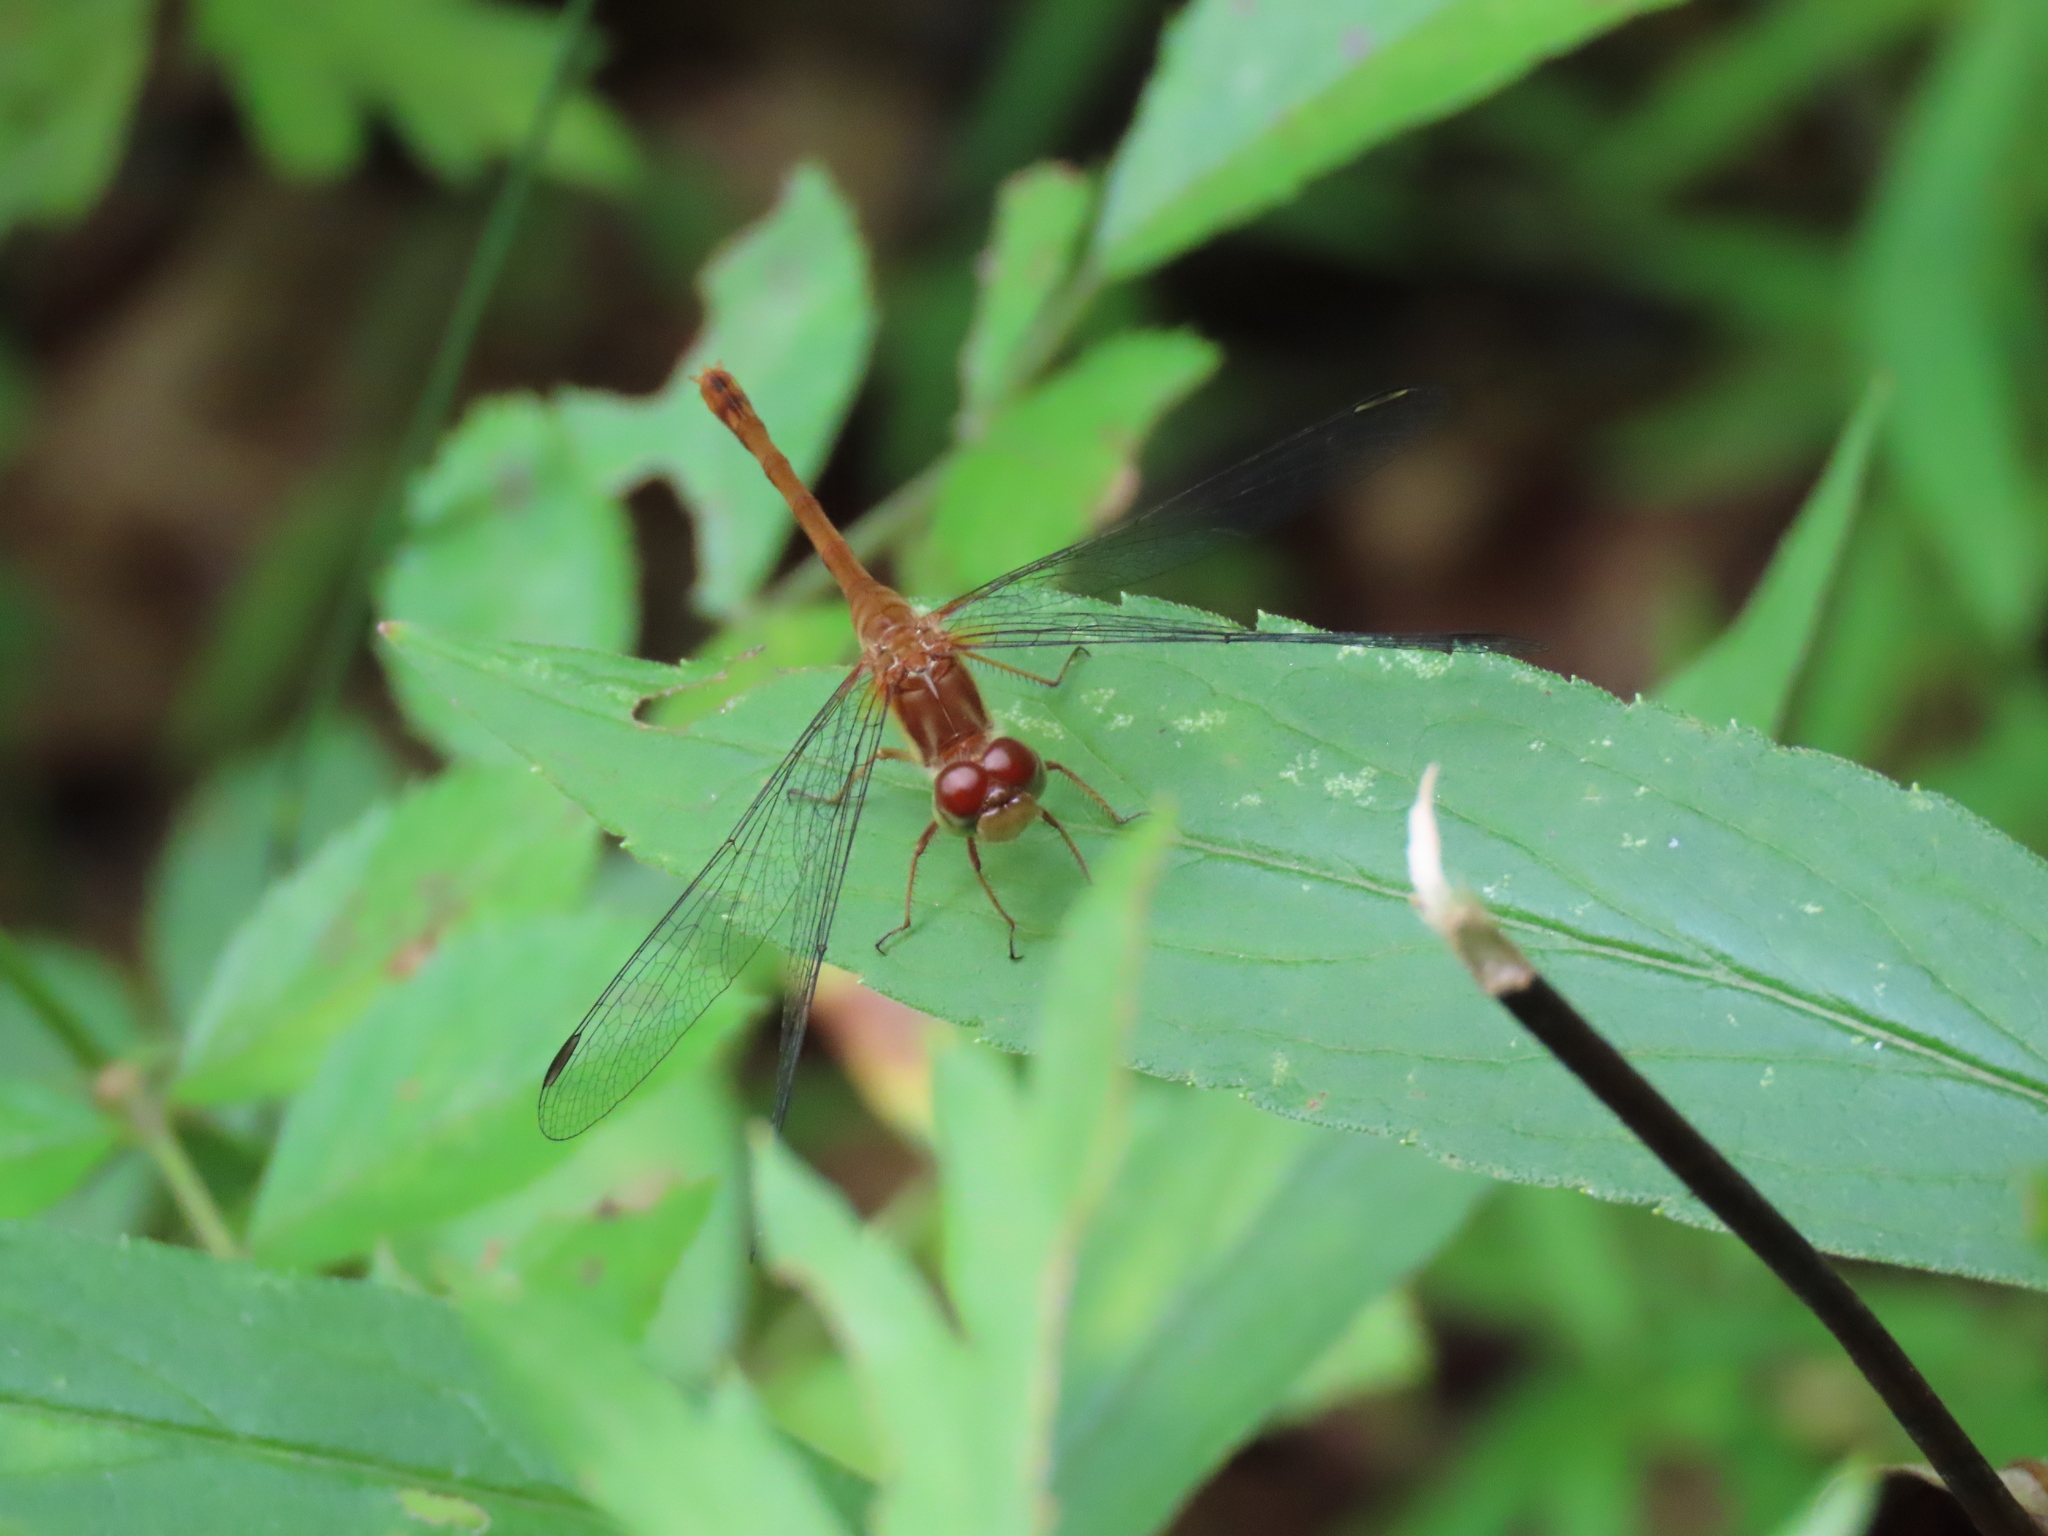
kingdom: Animalia
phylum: Arthropoda
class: Insecta
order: Odonata
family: Libellulidae
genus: Sympetrum
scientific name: Sympetrum vicinum
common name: Autumn meadowhawk
